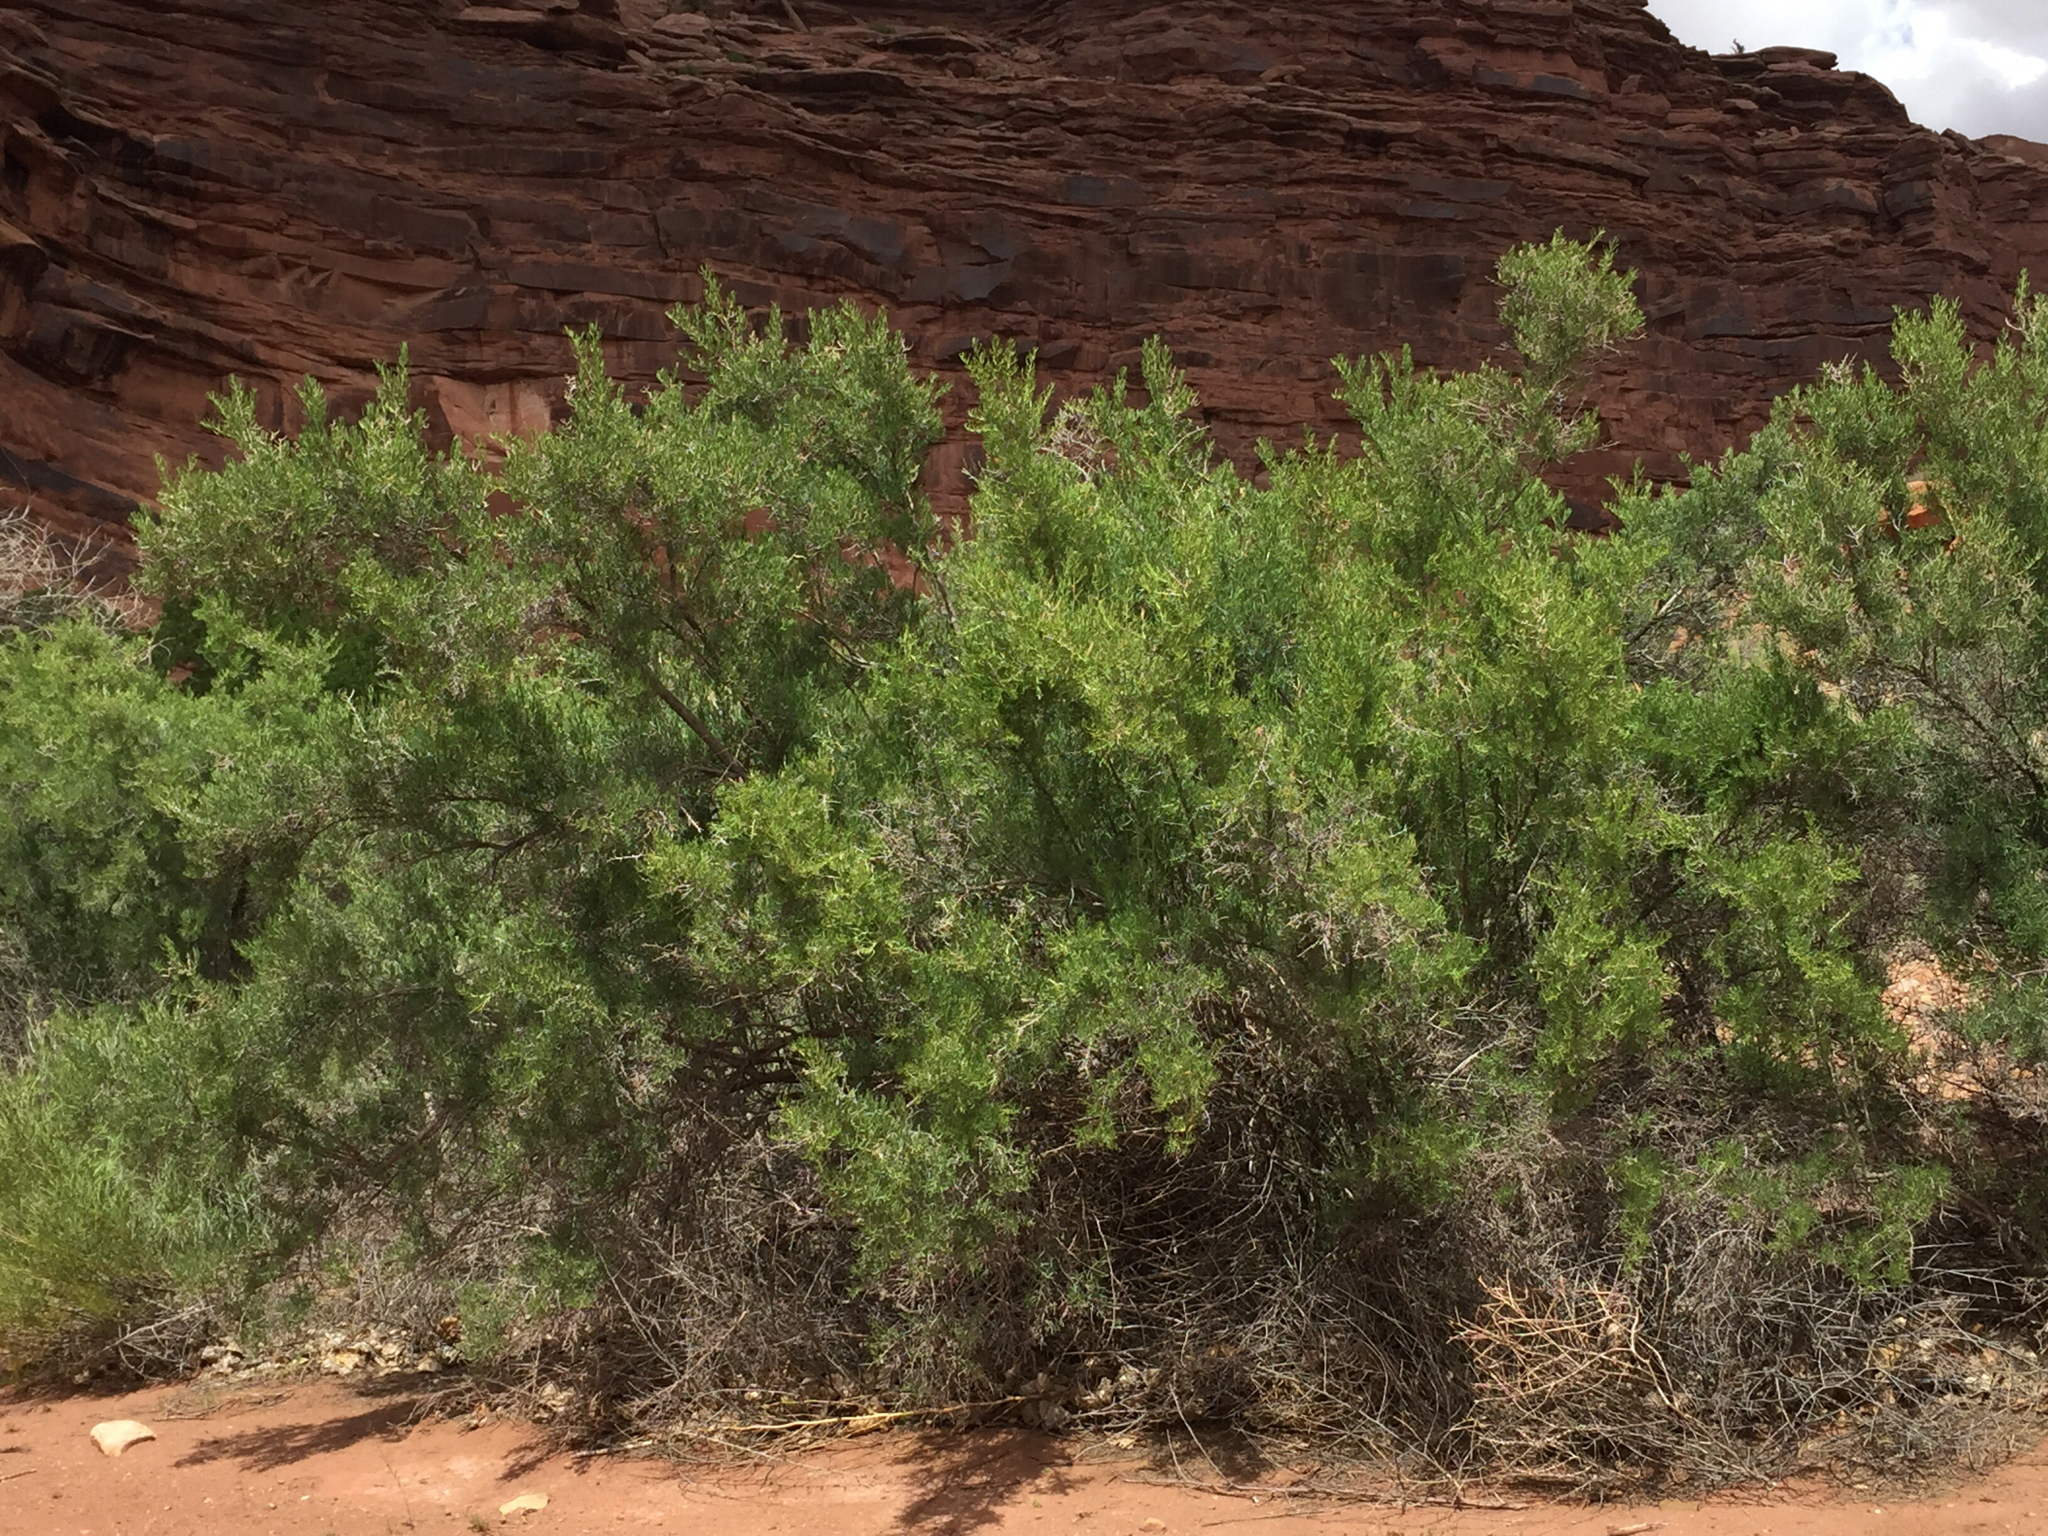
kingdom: Plantae
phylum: Tracheophyta
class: Magnoliopsida
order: Caryophyllales
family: Sarcobataceae
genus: Sarcobatus
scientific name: Sarcobatus vermiculatus
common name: Greasewood
